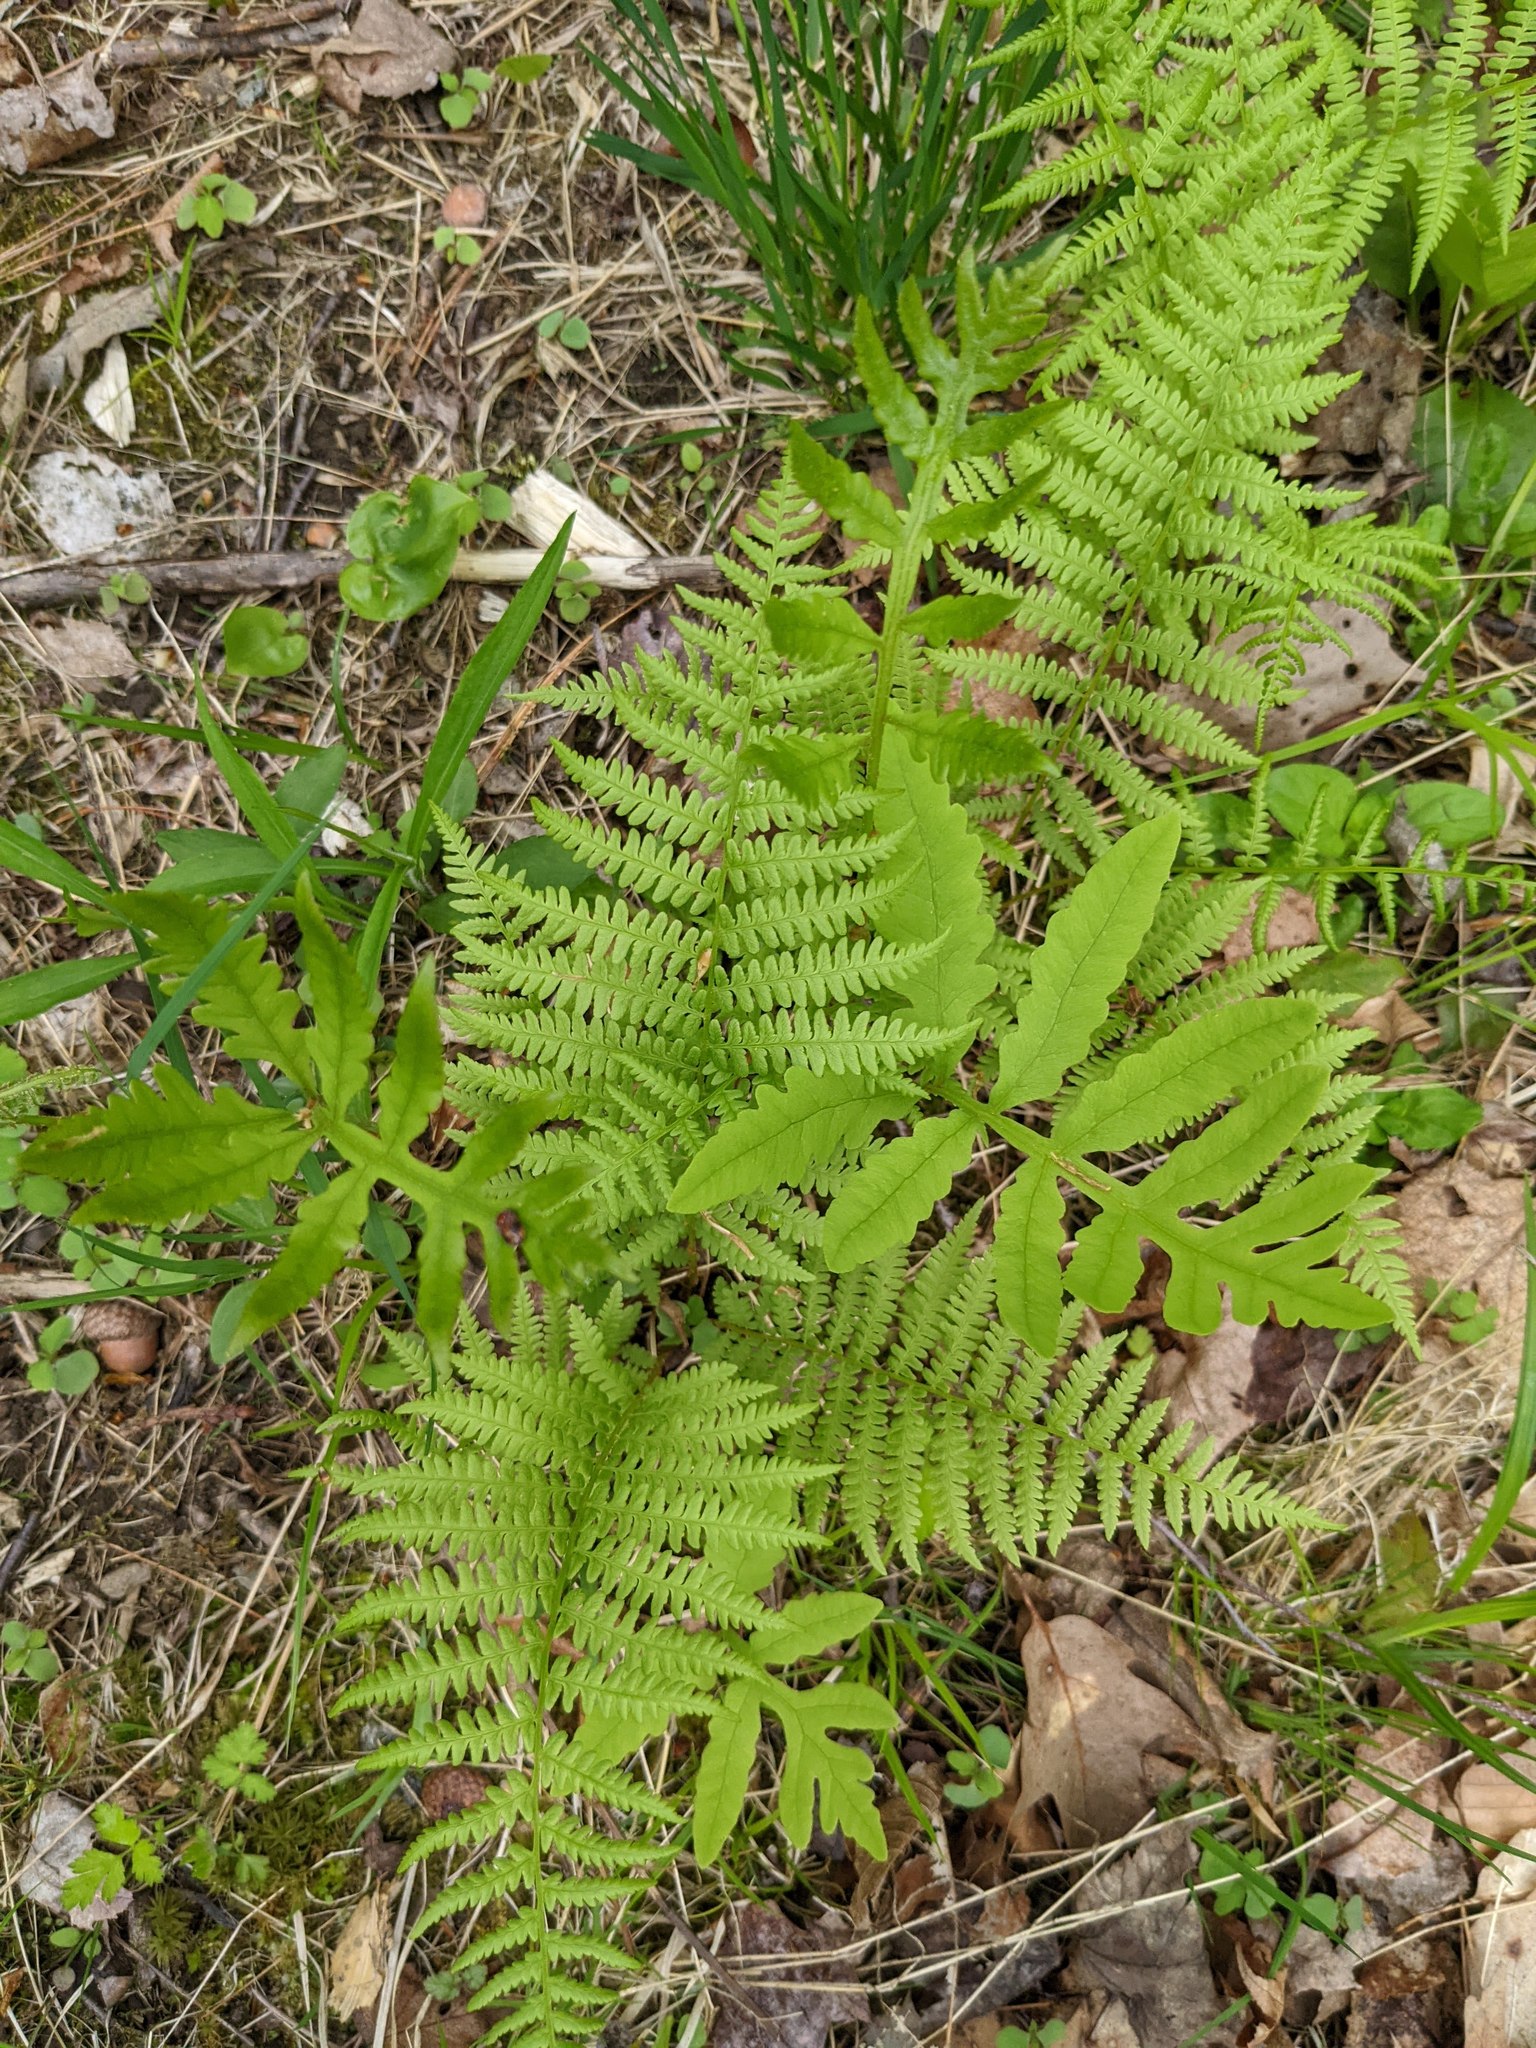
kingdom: Plantae
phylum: Tracheophyta
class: Polypodiopsida
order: Polypodiales
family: Onocleaceae
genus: Onoclea
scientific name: Onoclea sensibilis
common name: Sensitive fern
